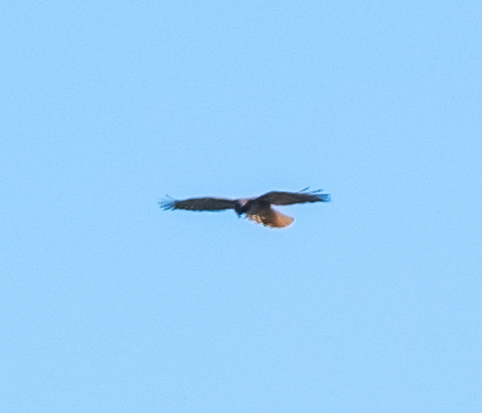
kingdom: Animalia
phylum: Chordata
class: Aves
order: Accipitriformes
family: Accipitridae
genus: Buteo
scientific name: Buteo jamaicensis
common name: Red-tailed hawk
